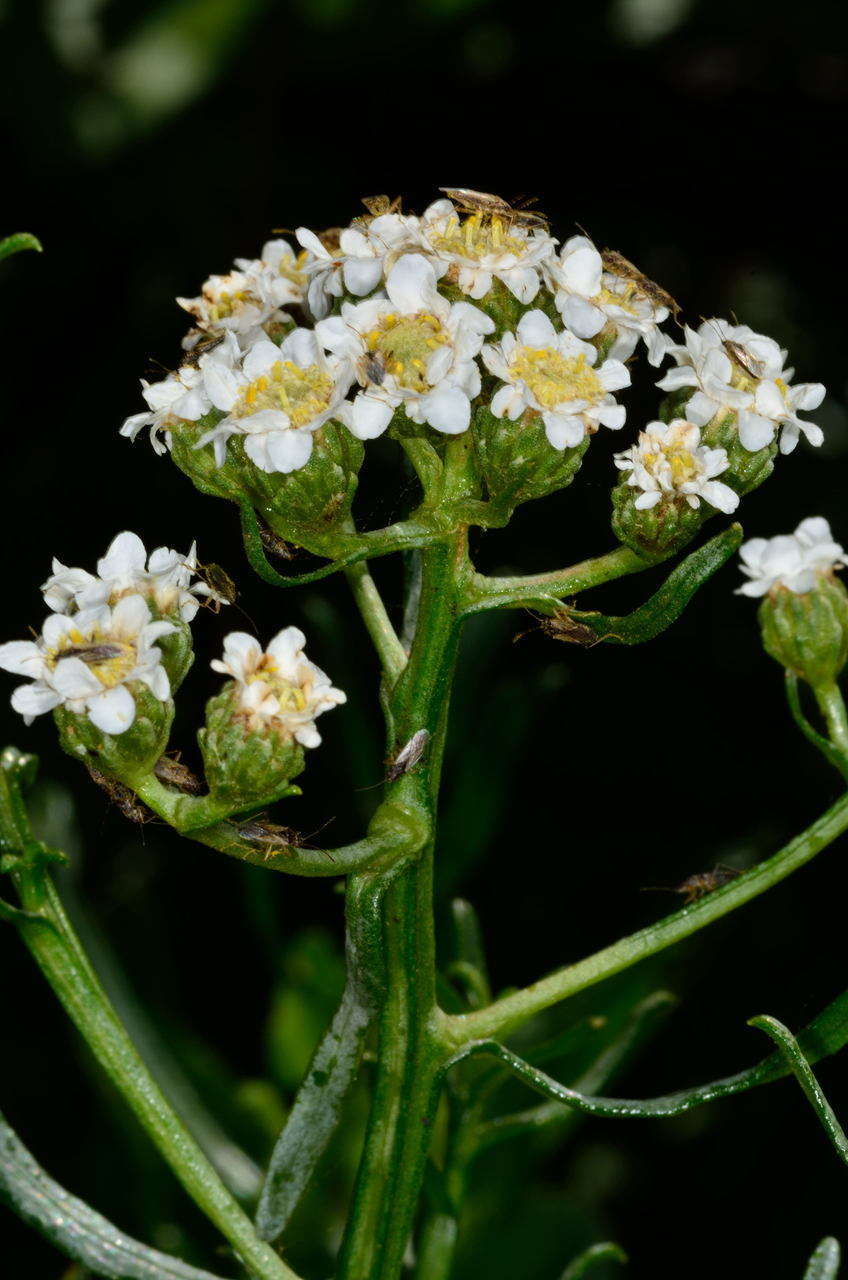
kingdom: Plantae
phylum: Tracheophyta
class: Magnoliopsida
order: Asterales
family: Asteraceae
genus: Ixodia
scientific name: Ixodia achillaeoides
